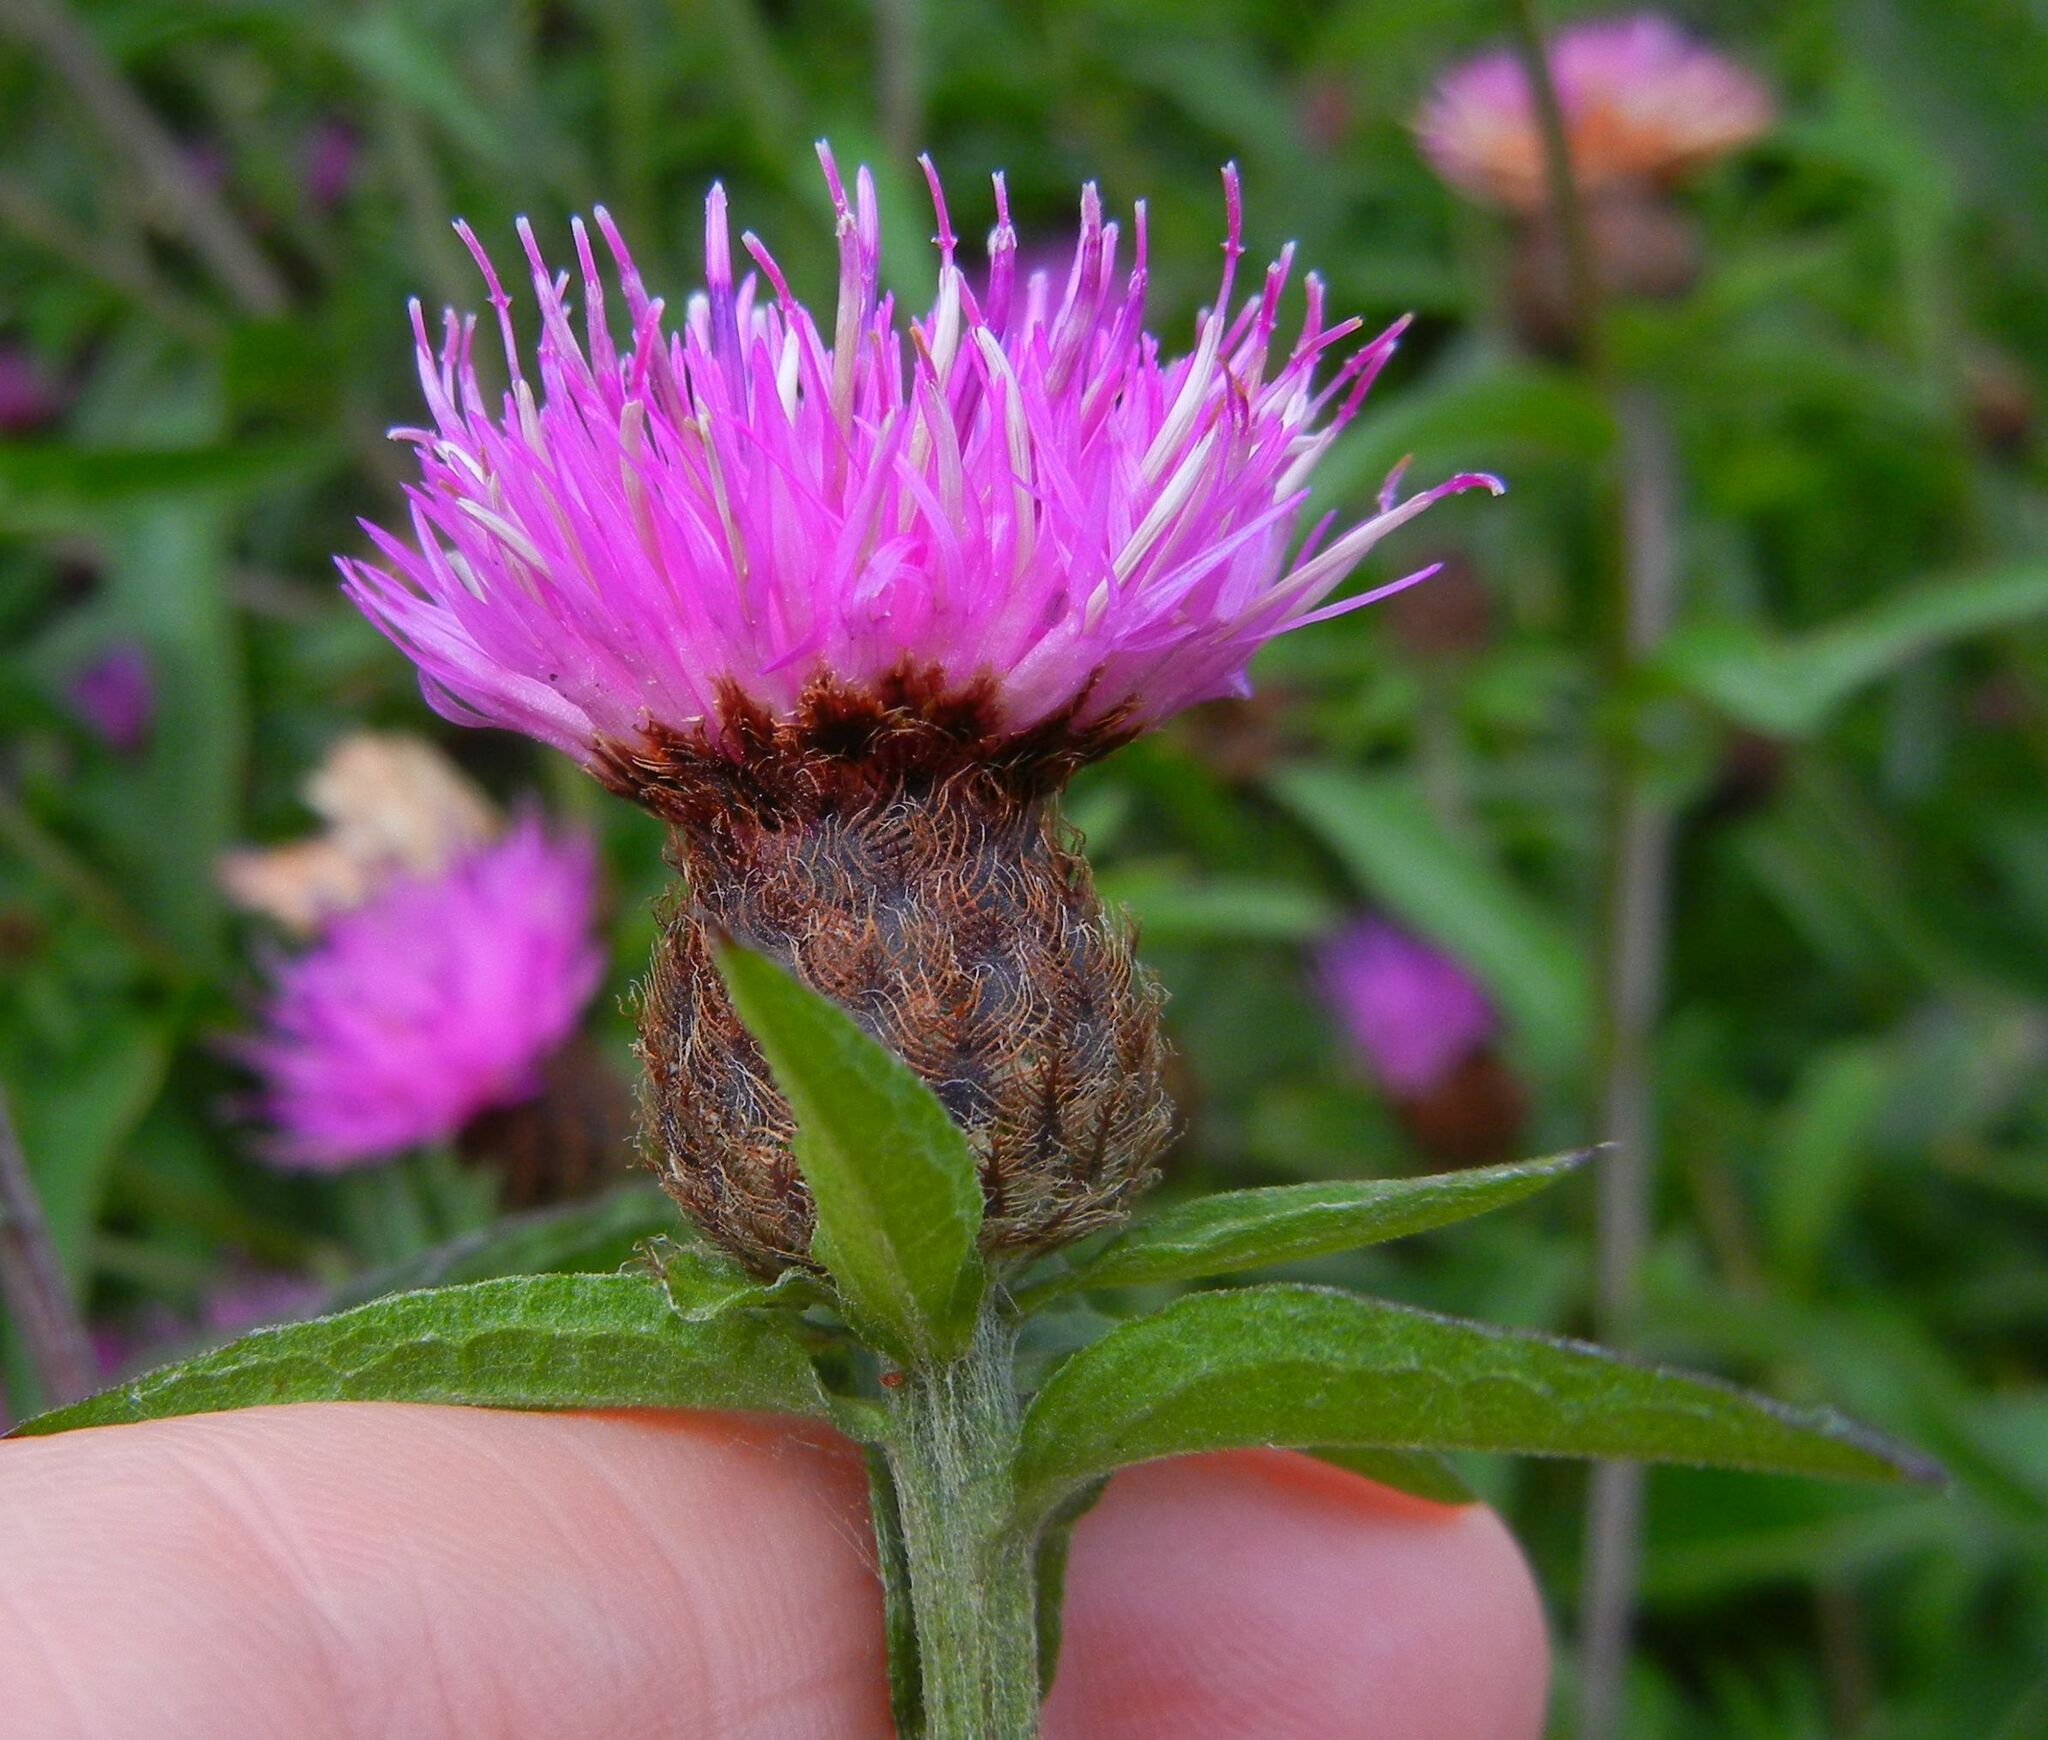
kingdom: Plantae
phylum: Tracheophyta
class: Magnoliopsida
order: Asterales
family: Asteraceae
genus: Centaurea
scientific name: Centaurea nigra
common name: Lesser knapweed
